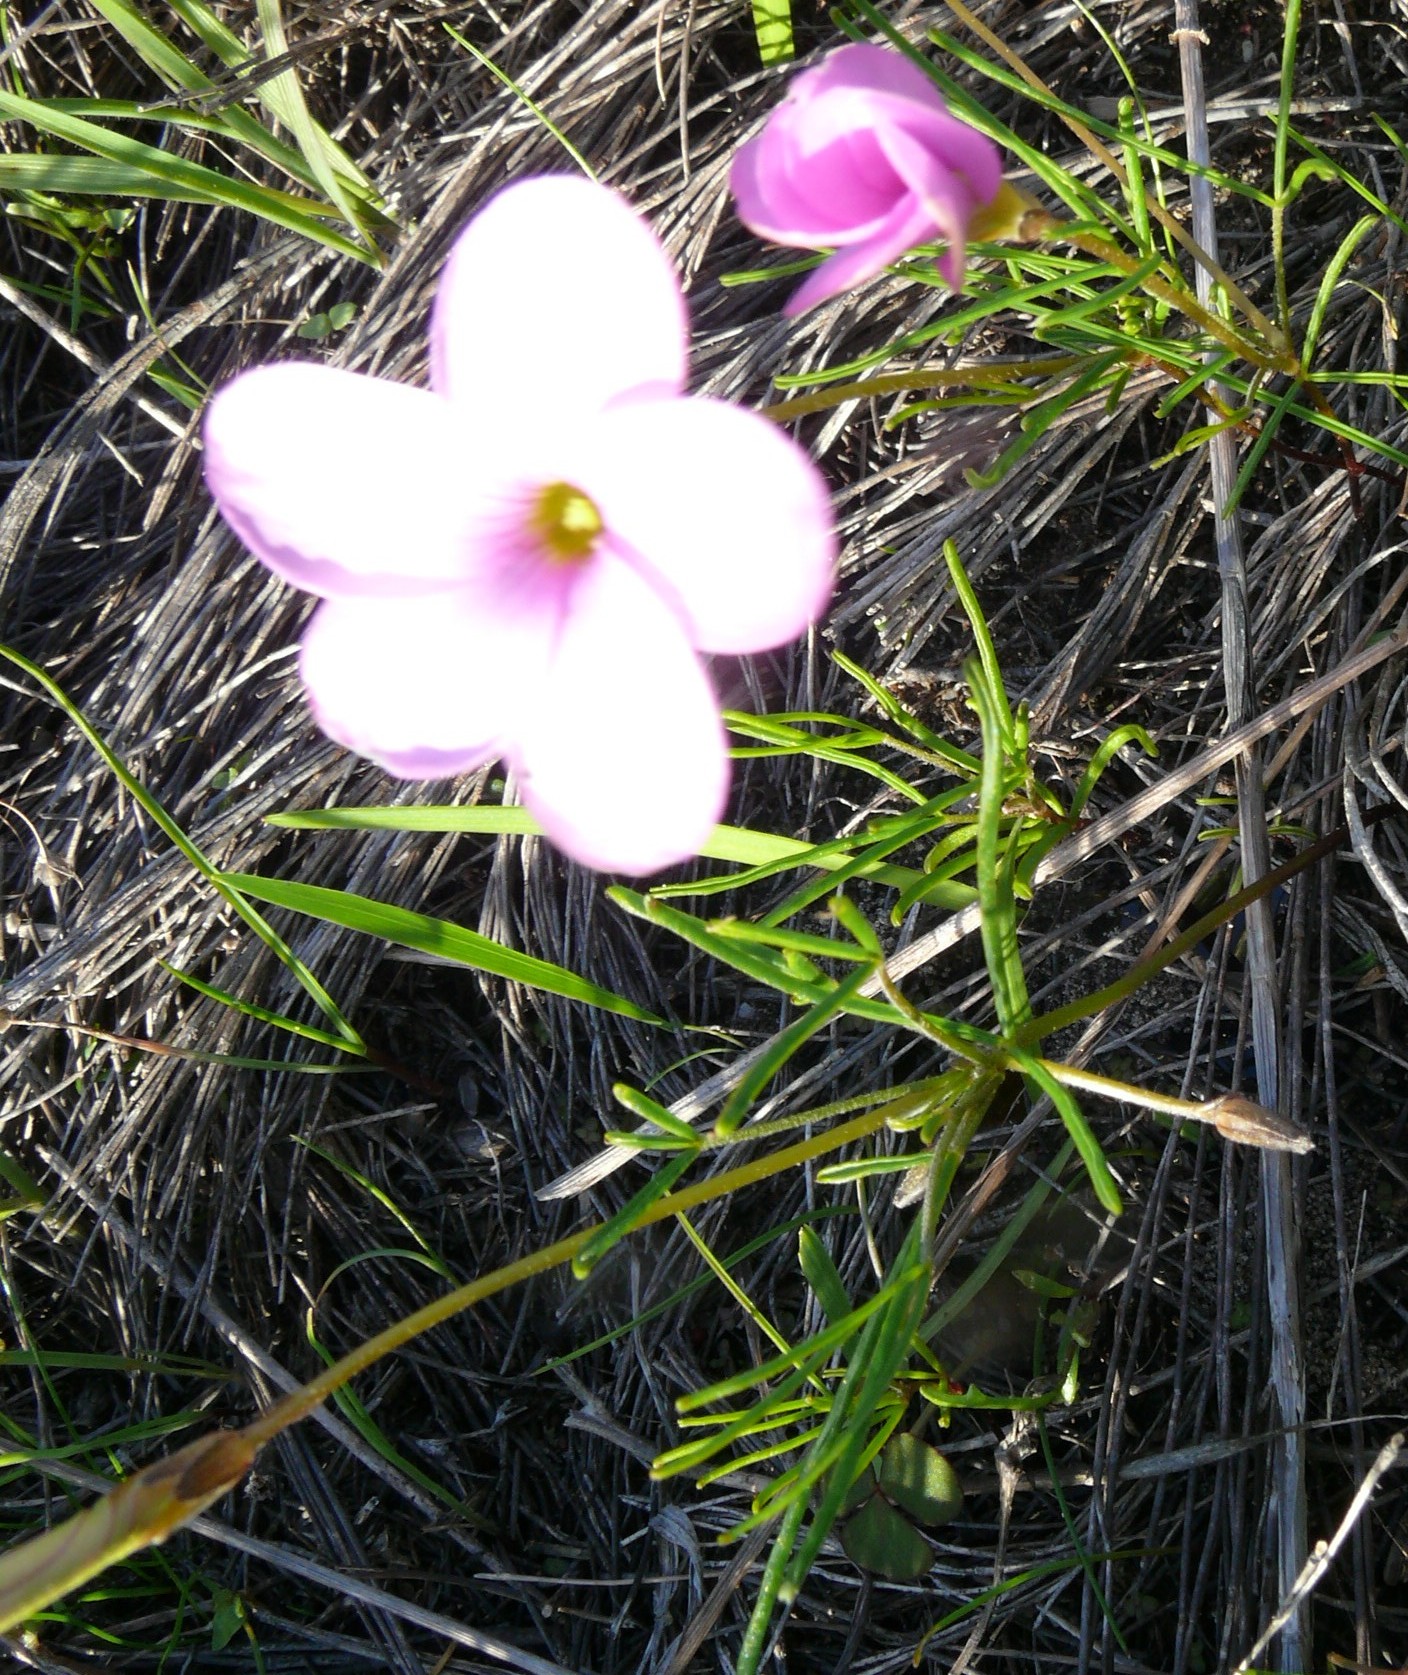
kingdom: Plantae
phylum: Tracheophyta
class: Magnoliopsida
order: Oxalidales
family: Oxalidaceae
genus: Oxalis
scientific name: Oxalis polyphylla
